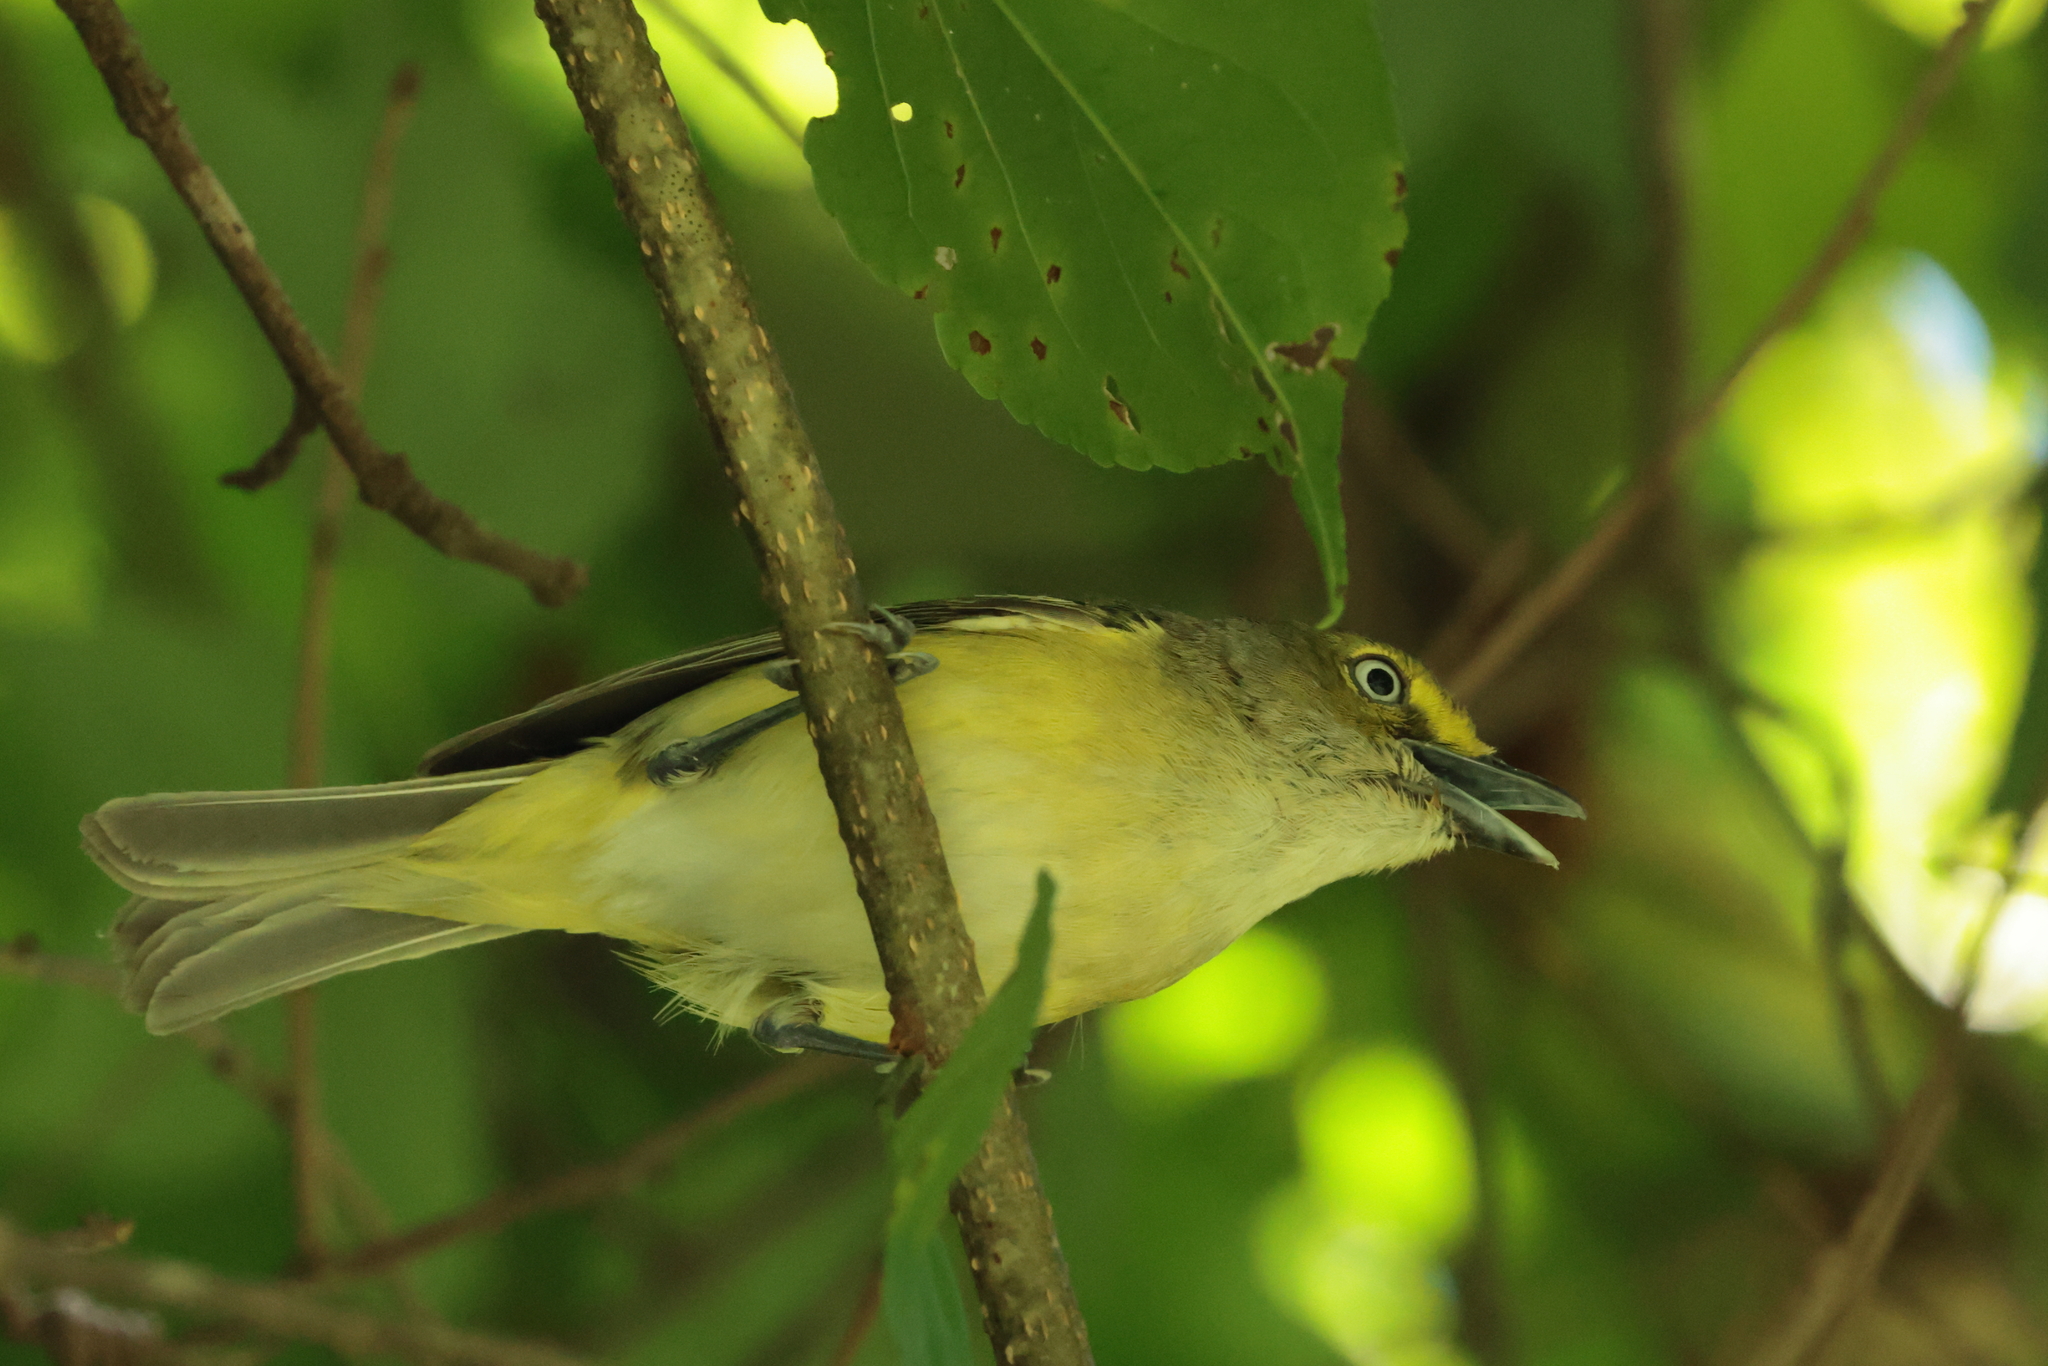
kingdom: Animalia
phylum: Chordata
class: Aves
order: Passeriformes
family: Vireonidae
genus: Vireo
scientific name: Vireo griseus
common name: White-eyed vireo
